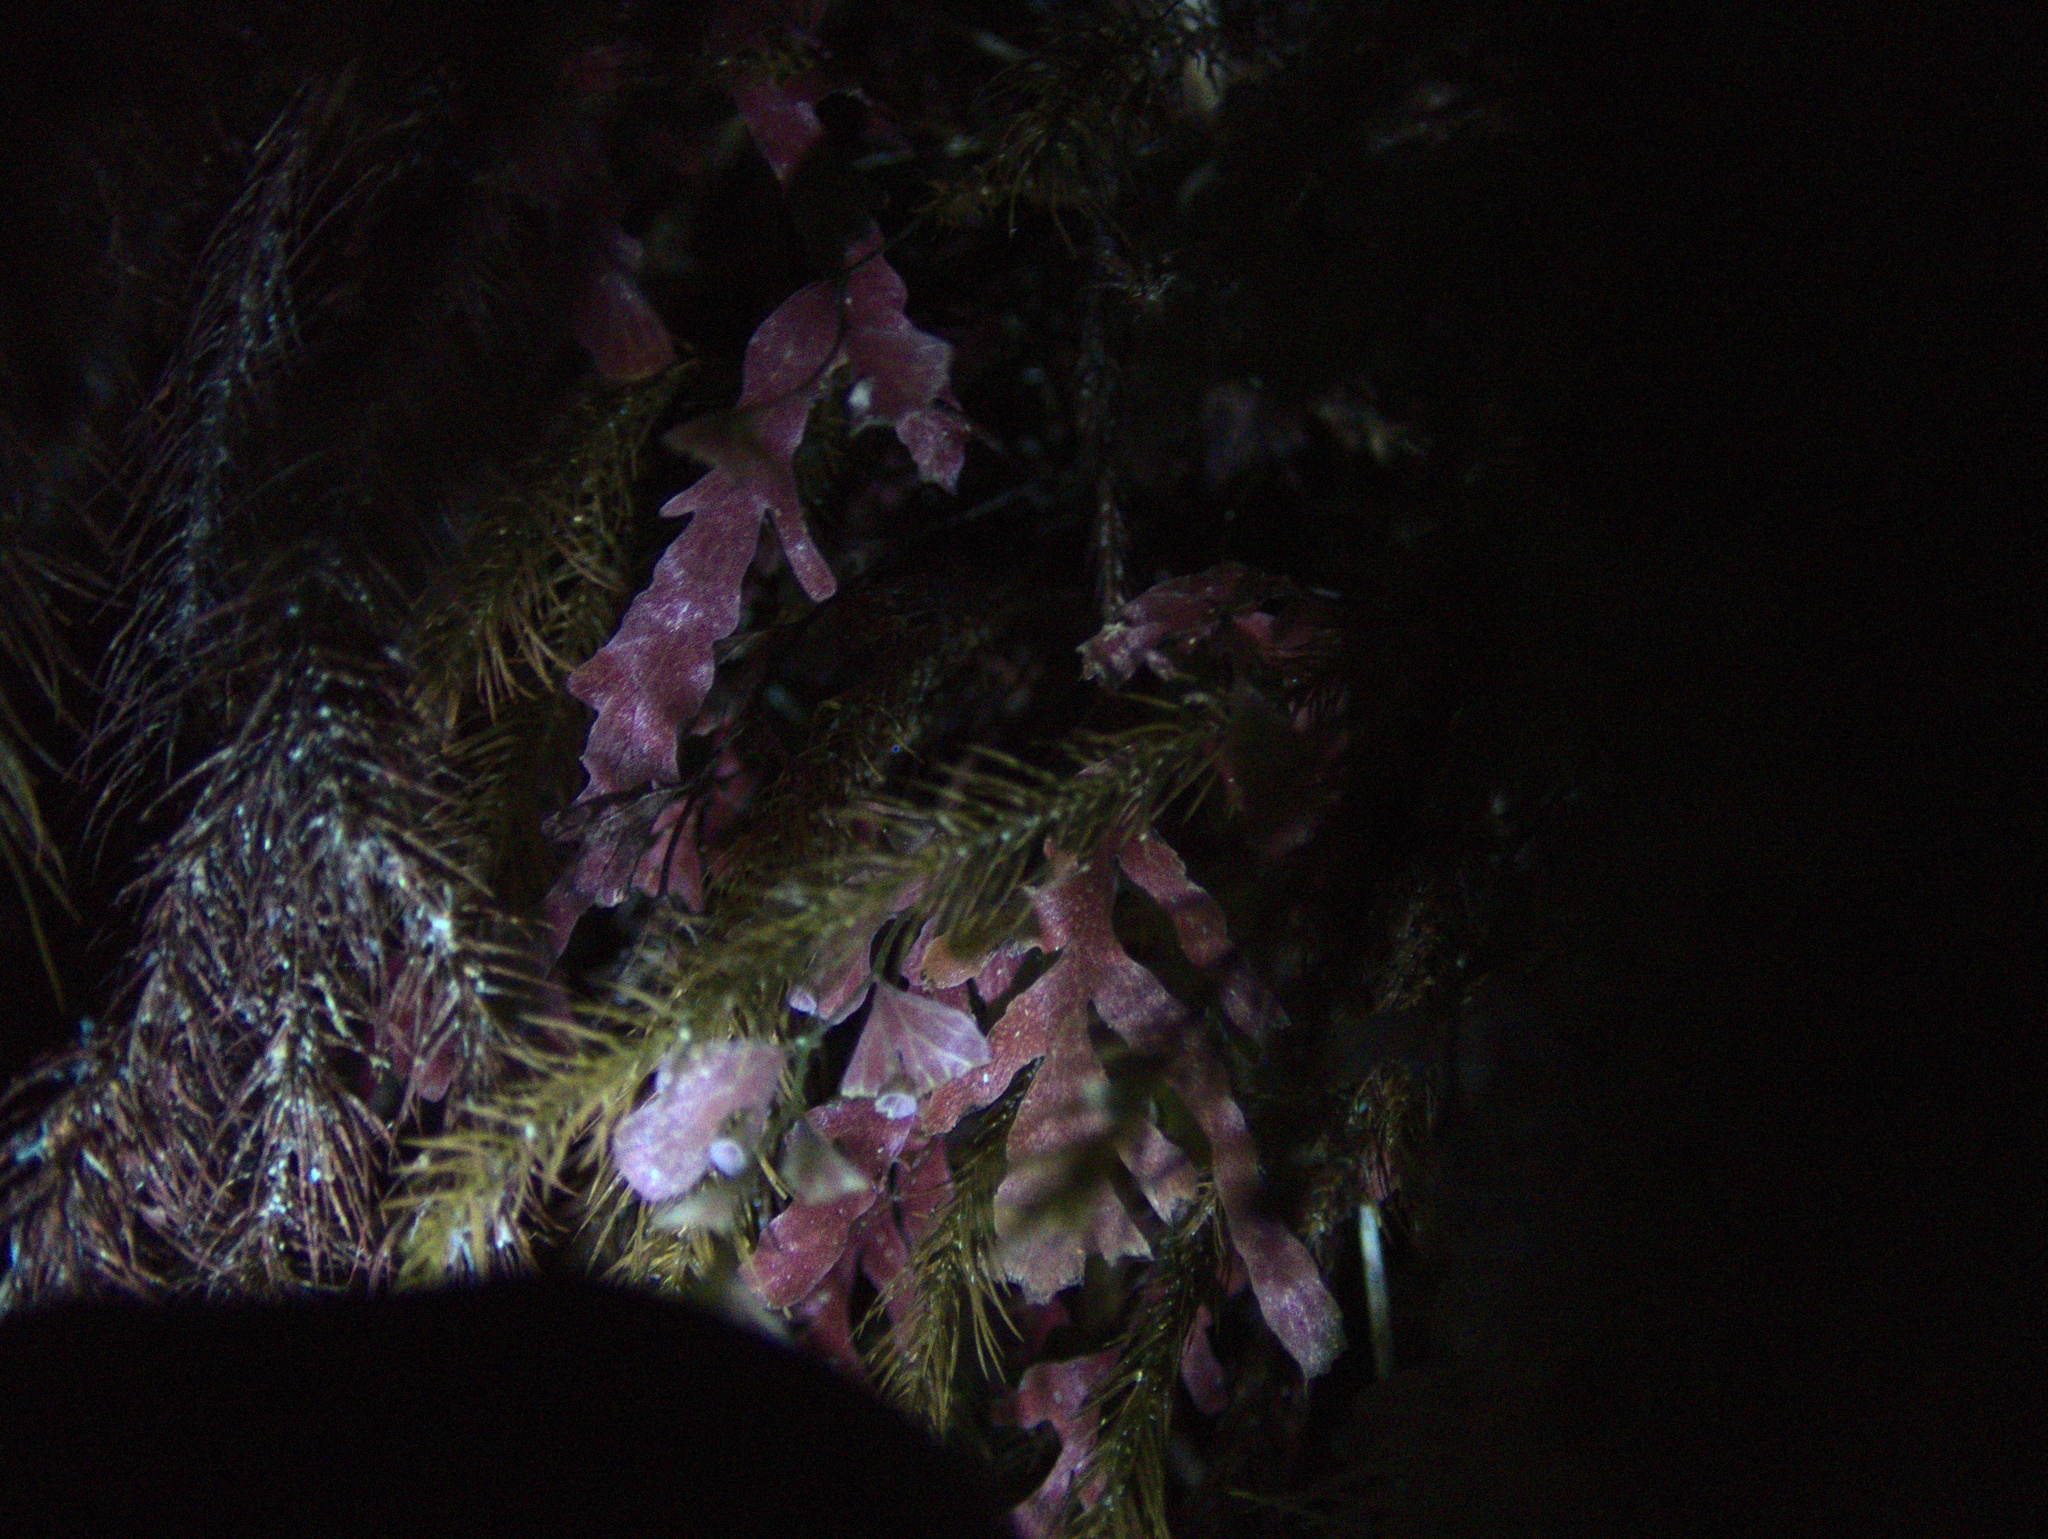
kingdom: Plantae
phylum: Tracheophyta
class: Polypodiopsida
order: Hymenophyllales
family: Hymenophyllaceae
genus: Polyphlebium
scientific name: Polyphlebium venosum
